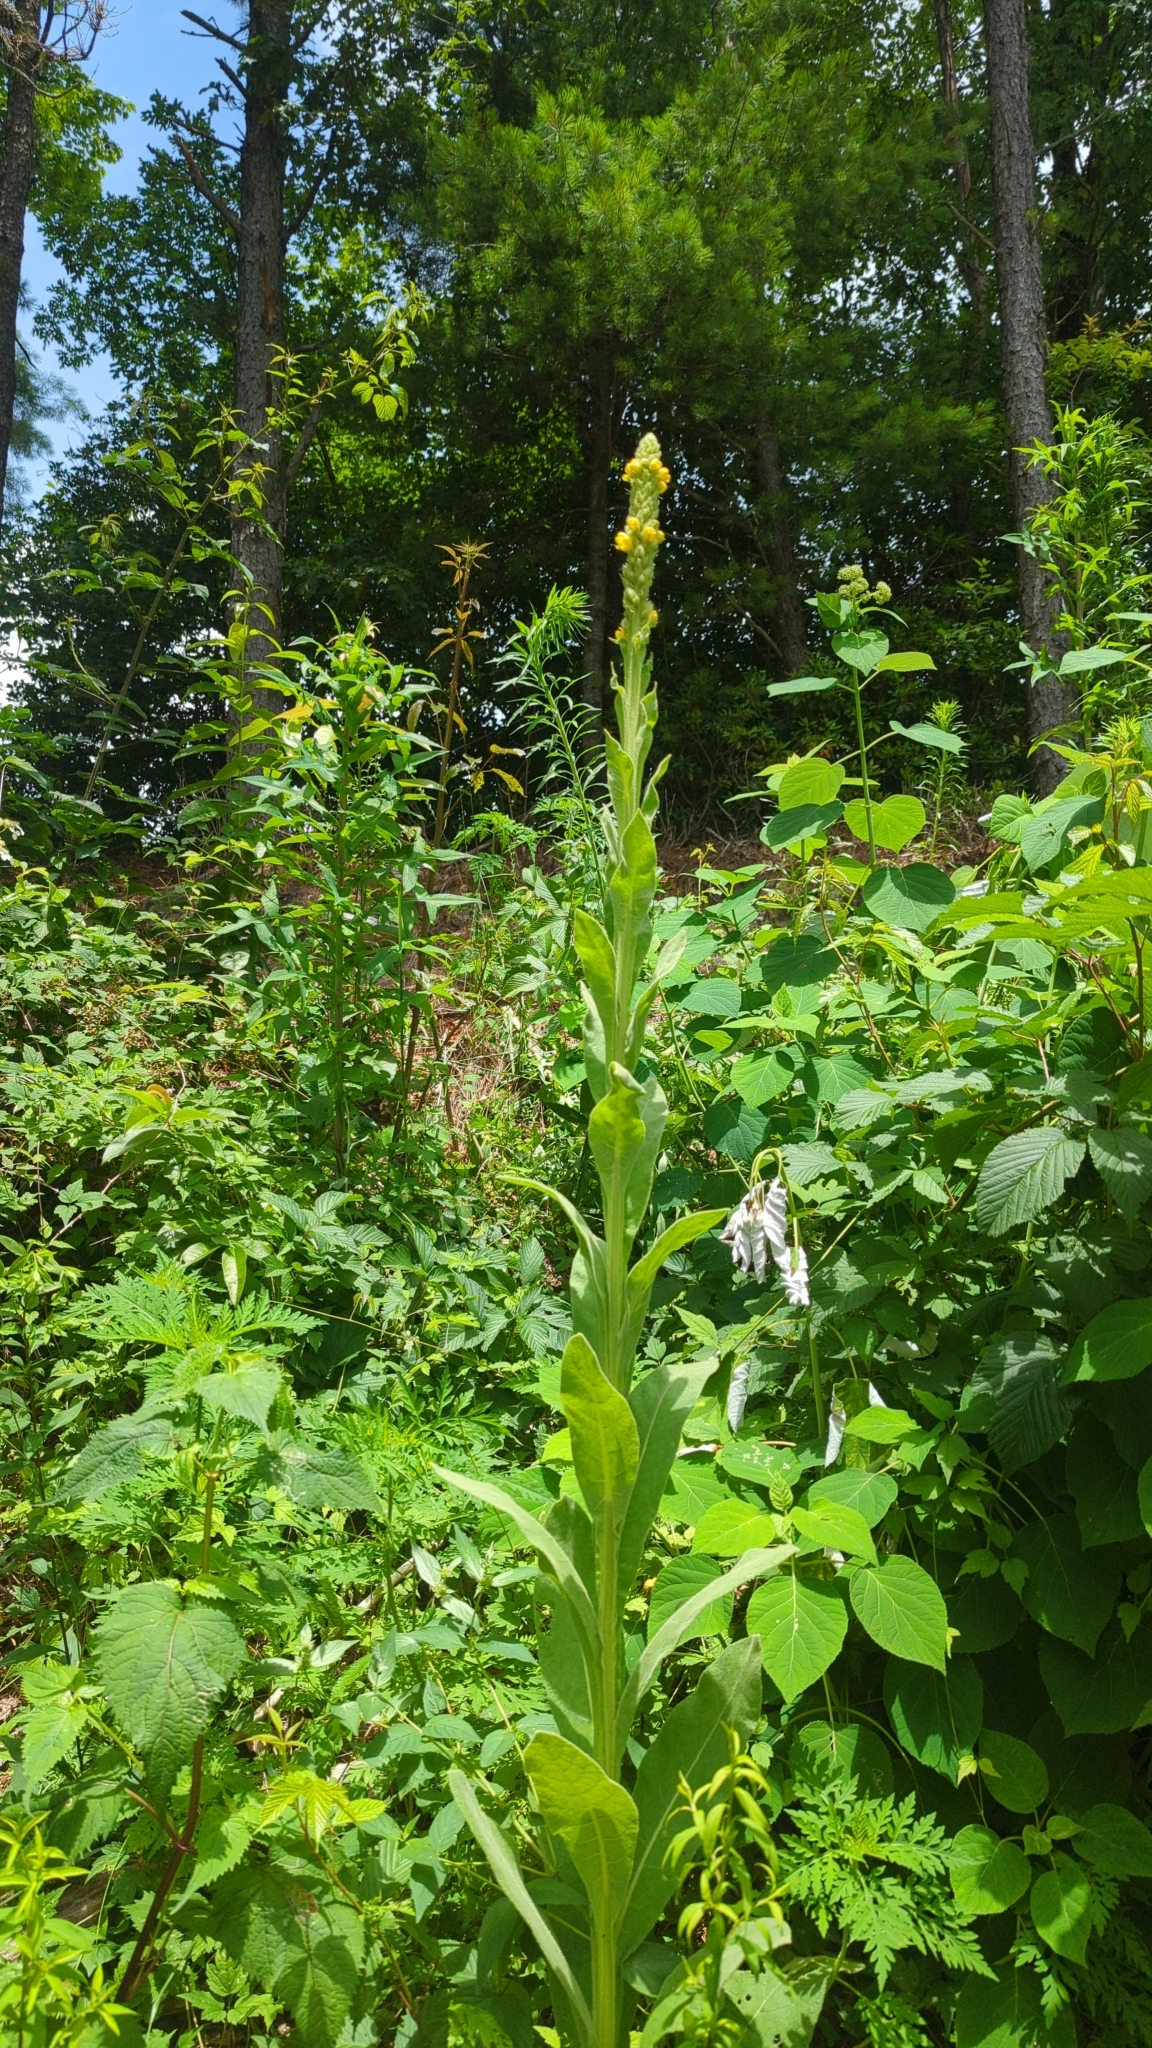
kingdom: Plantae
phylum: Tracheophyta
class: Magnoliopsida
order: Lamiales
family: Scrophulariaceae
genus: Verbascum
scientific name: Verbascum thapsus
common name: Common mullein
